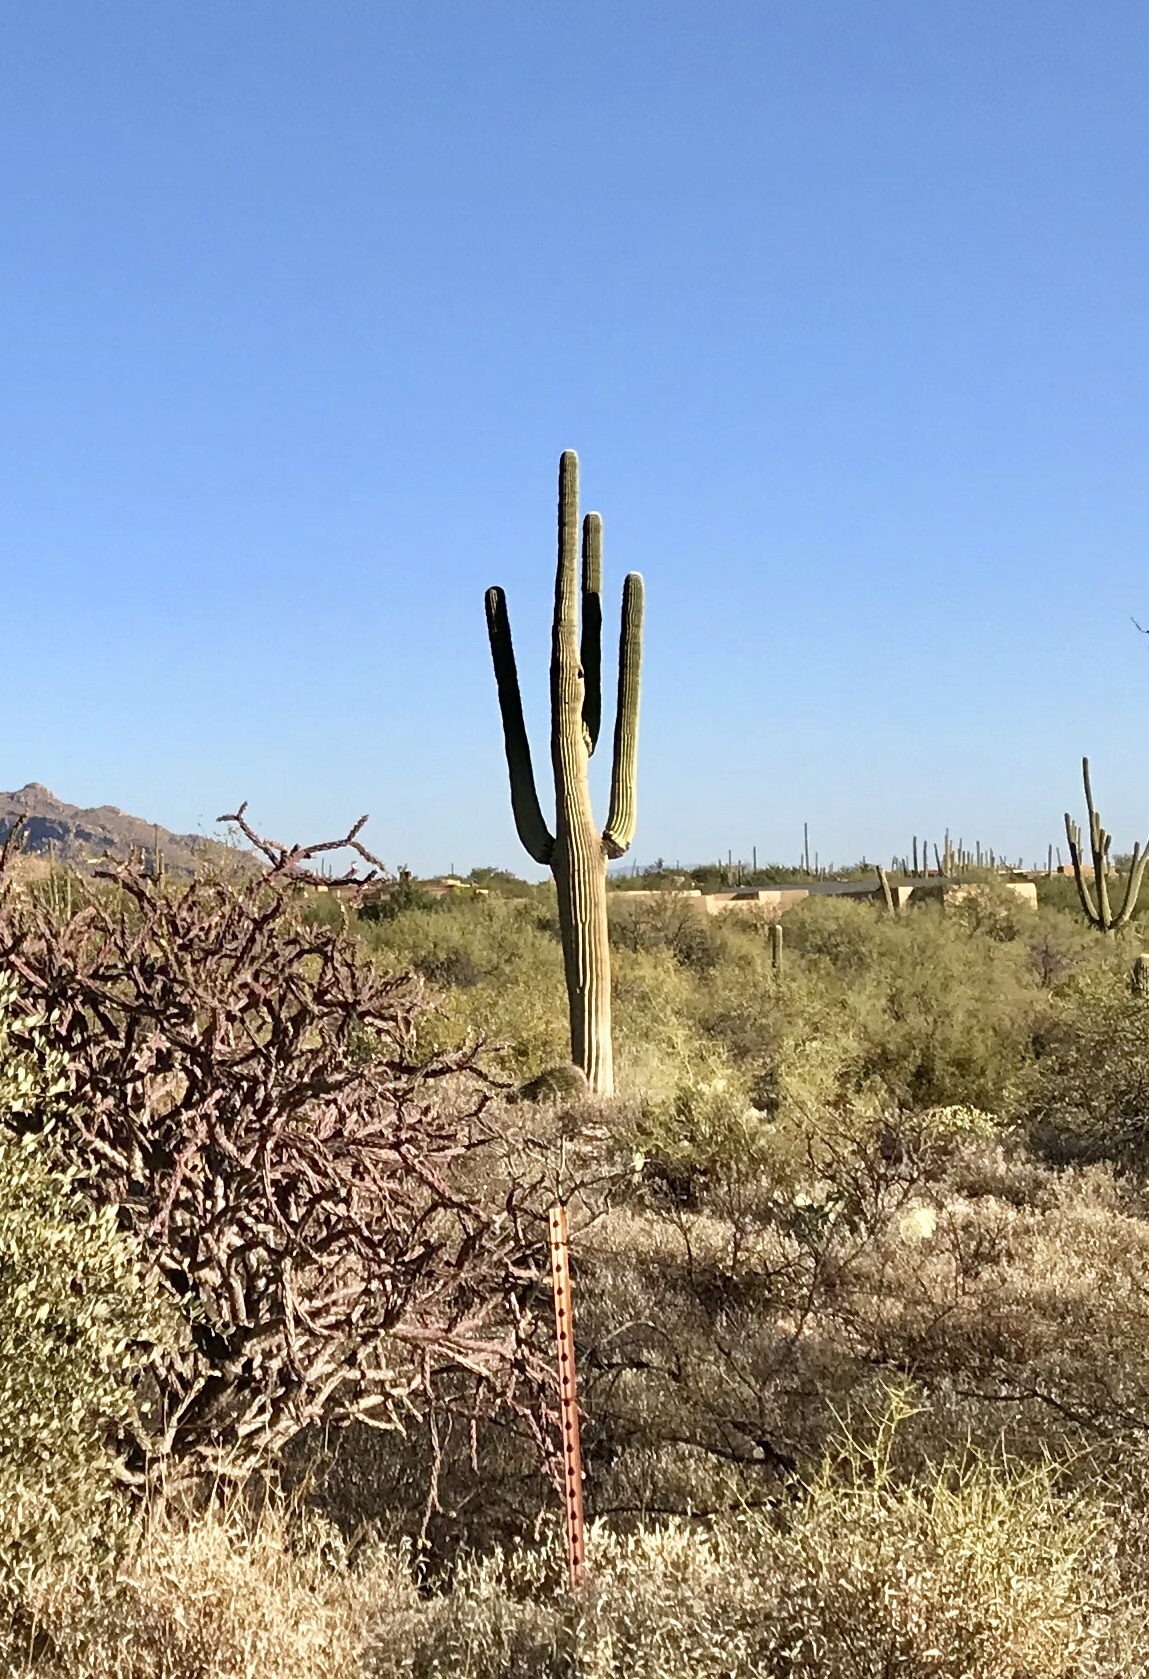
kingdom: Plantae
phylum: Tracheophyta
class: Magnoliopsida
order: Caryophyllales
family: Cactaceae
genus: Carnegiea
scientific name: Carnegiea gigantea
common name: Saguaro
